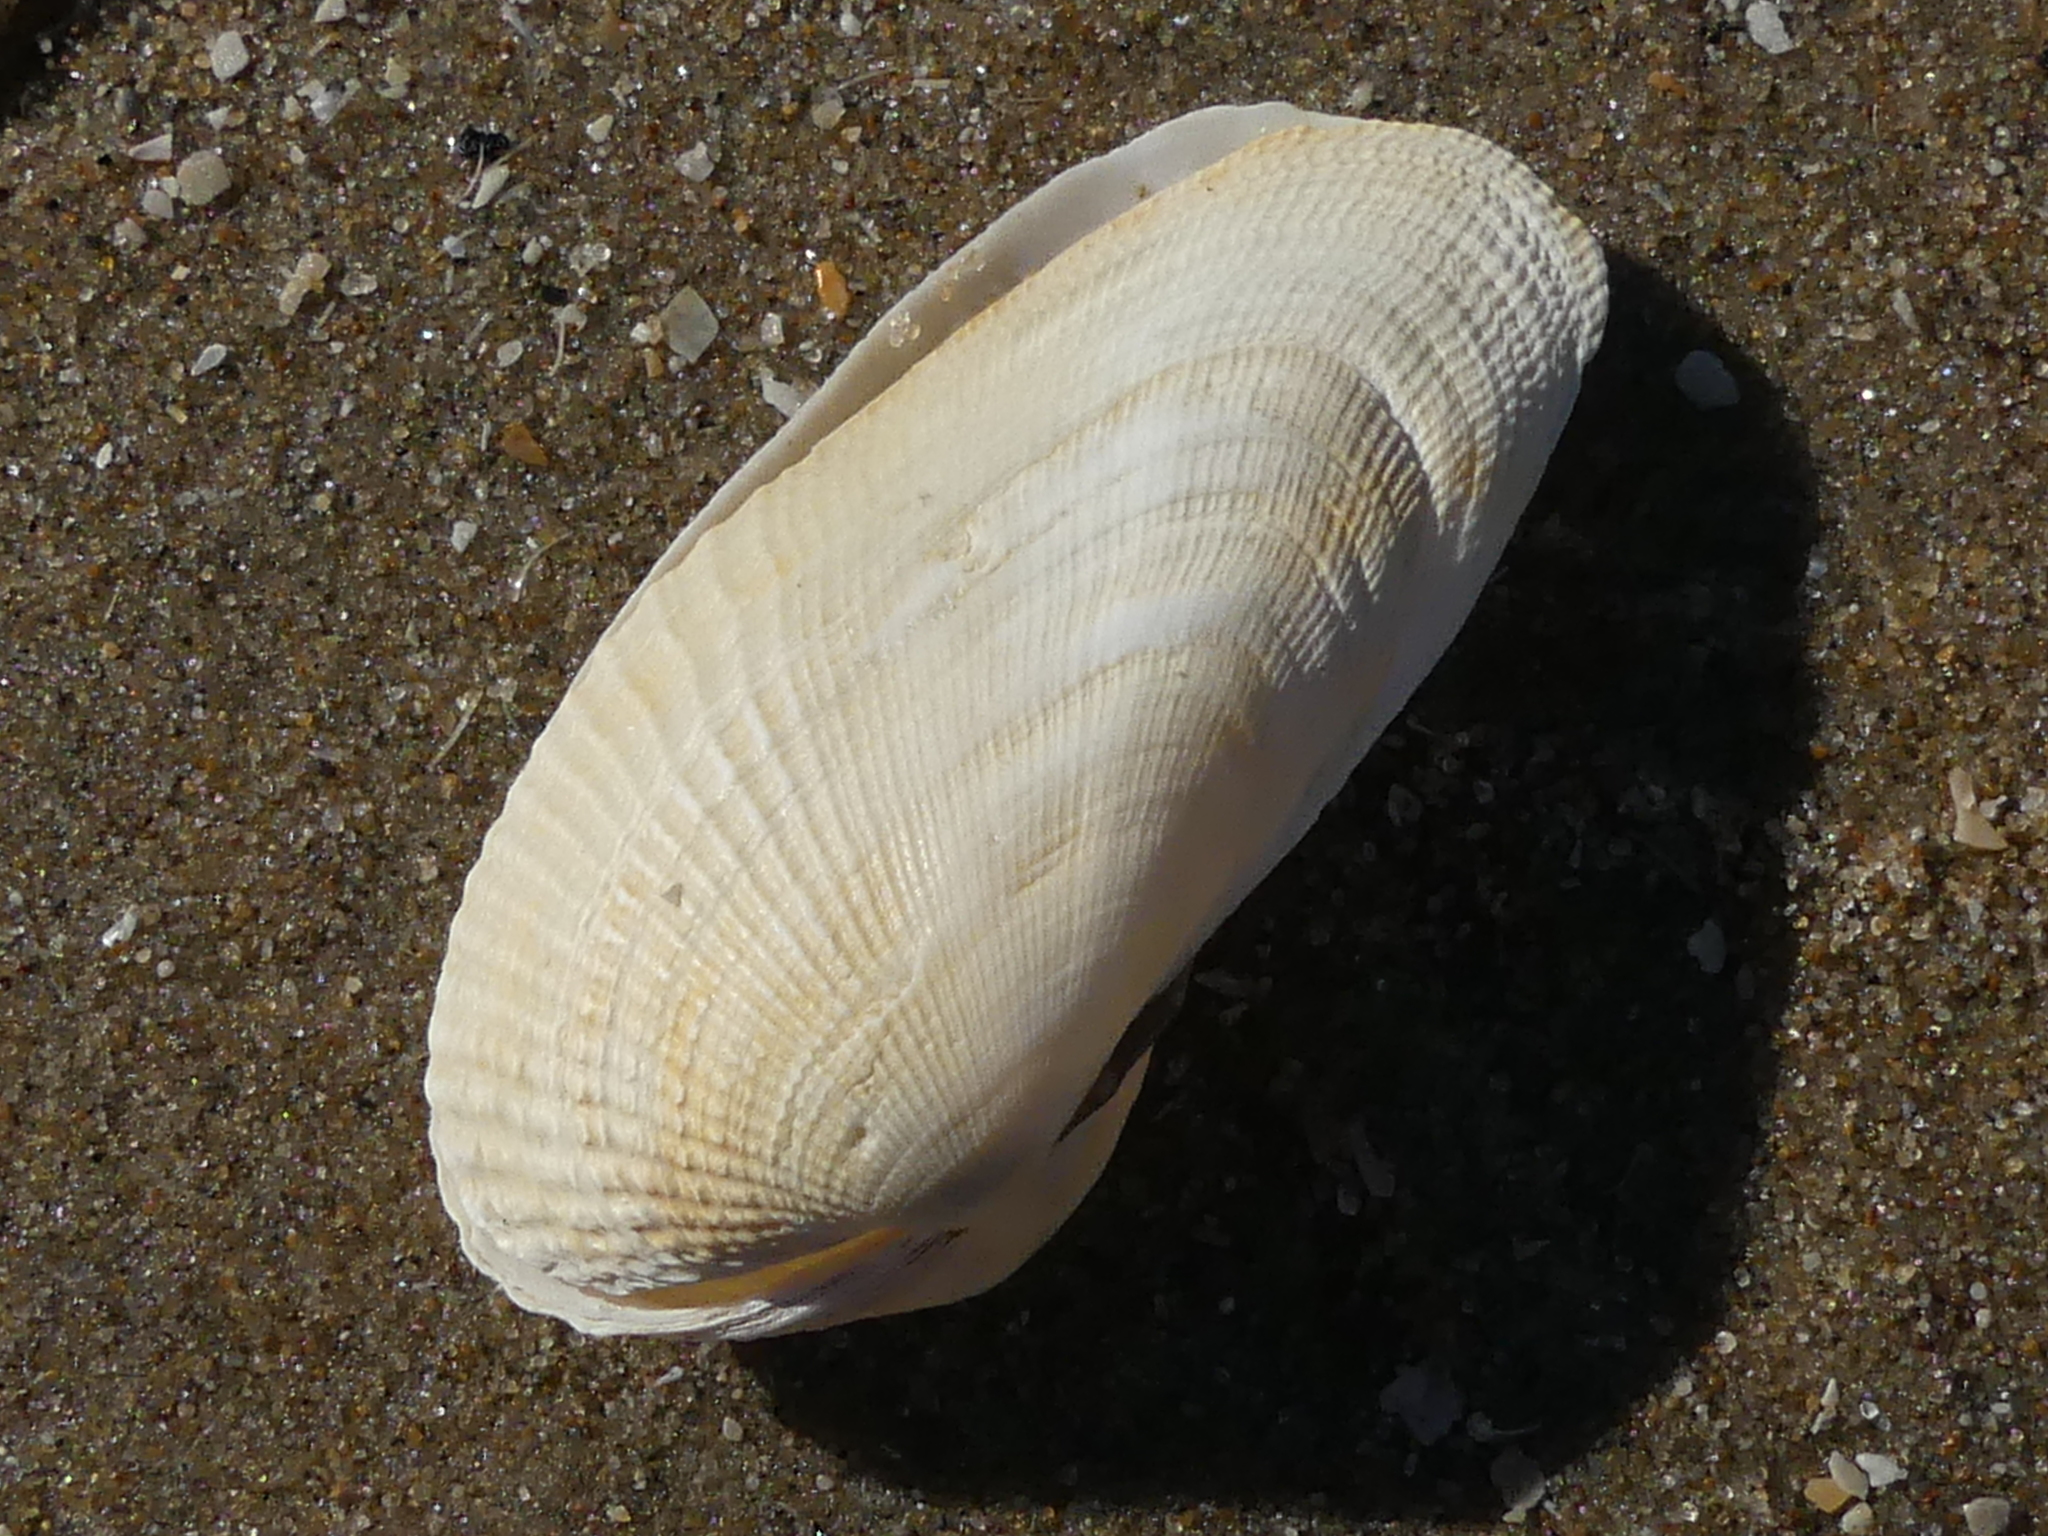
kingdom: Animalia
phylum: Mollusca
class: Bivalvia
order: Venerida
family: Veneridae
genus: Petricolaria
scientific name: Petricolaria pholadiformis
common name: American piddock
